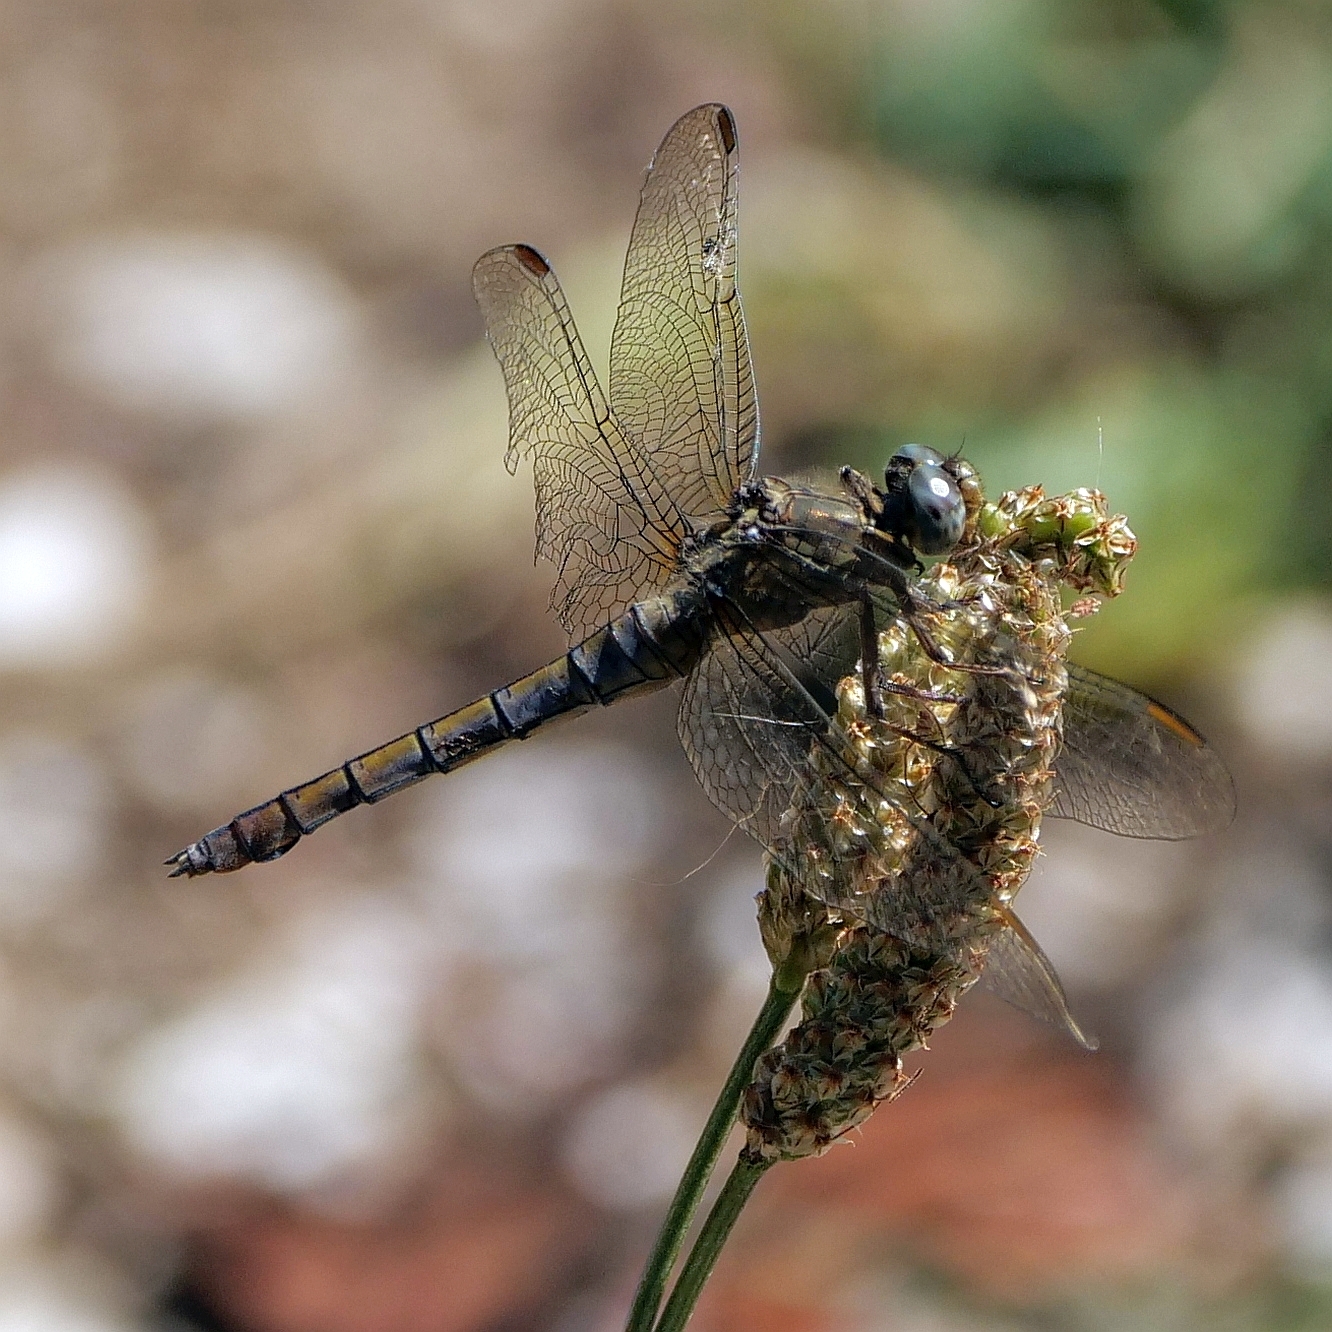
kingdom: Animalia
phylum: Arthropoda
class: Insecta
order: Odonata
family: Libellulidae
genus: Orthetrum
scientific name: Orthetrum coerulescens
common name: Keeled skimmer
